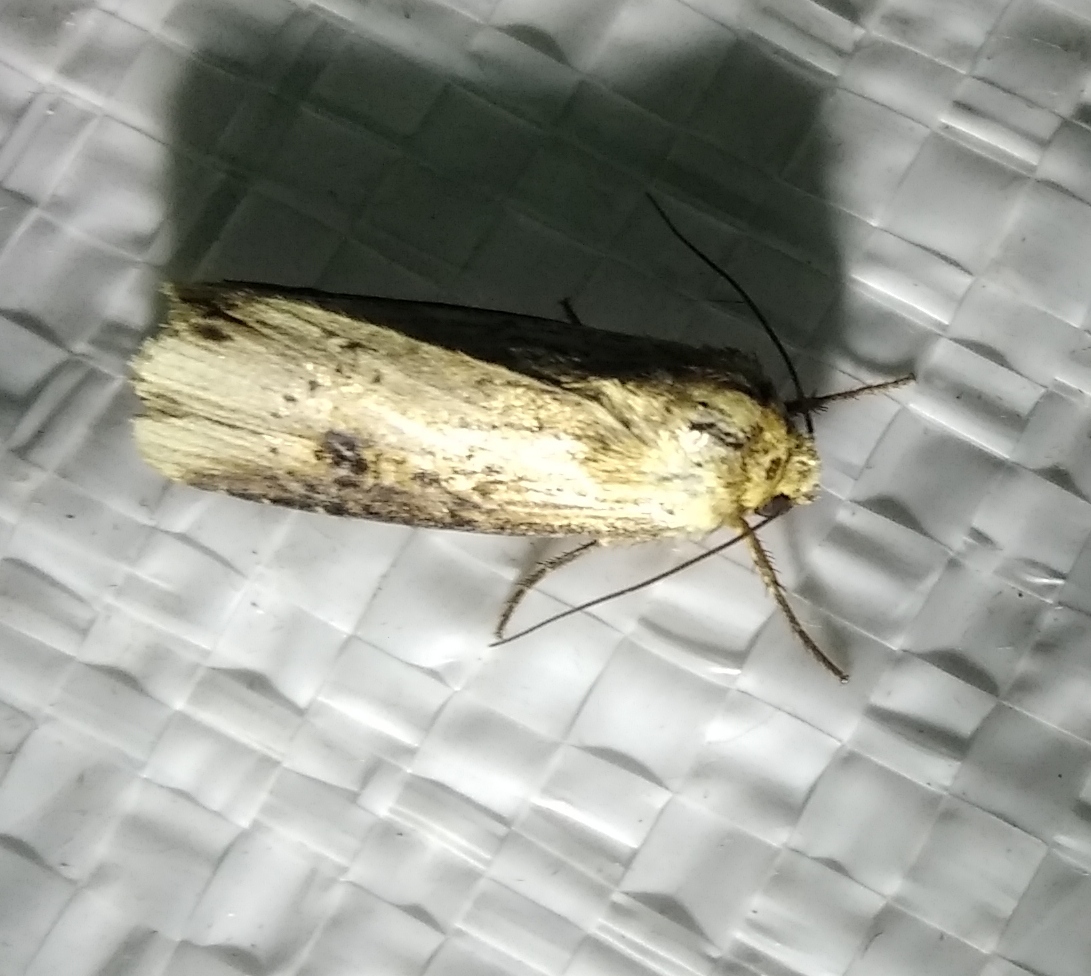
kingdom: Animalia
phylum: Arthropoda
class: Insecta
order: Lepidoptera
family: Noctuidae
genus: Axylia
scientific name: Axylia putris
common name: Flame
